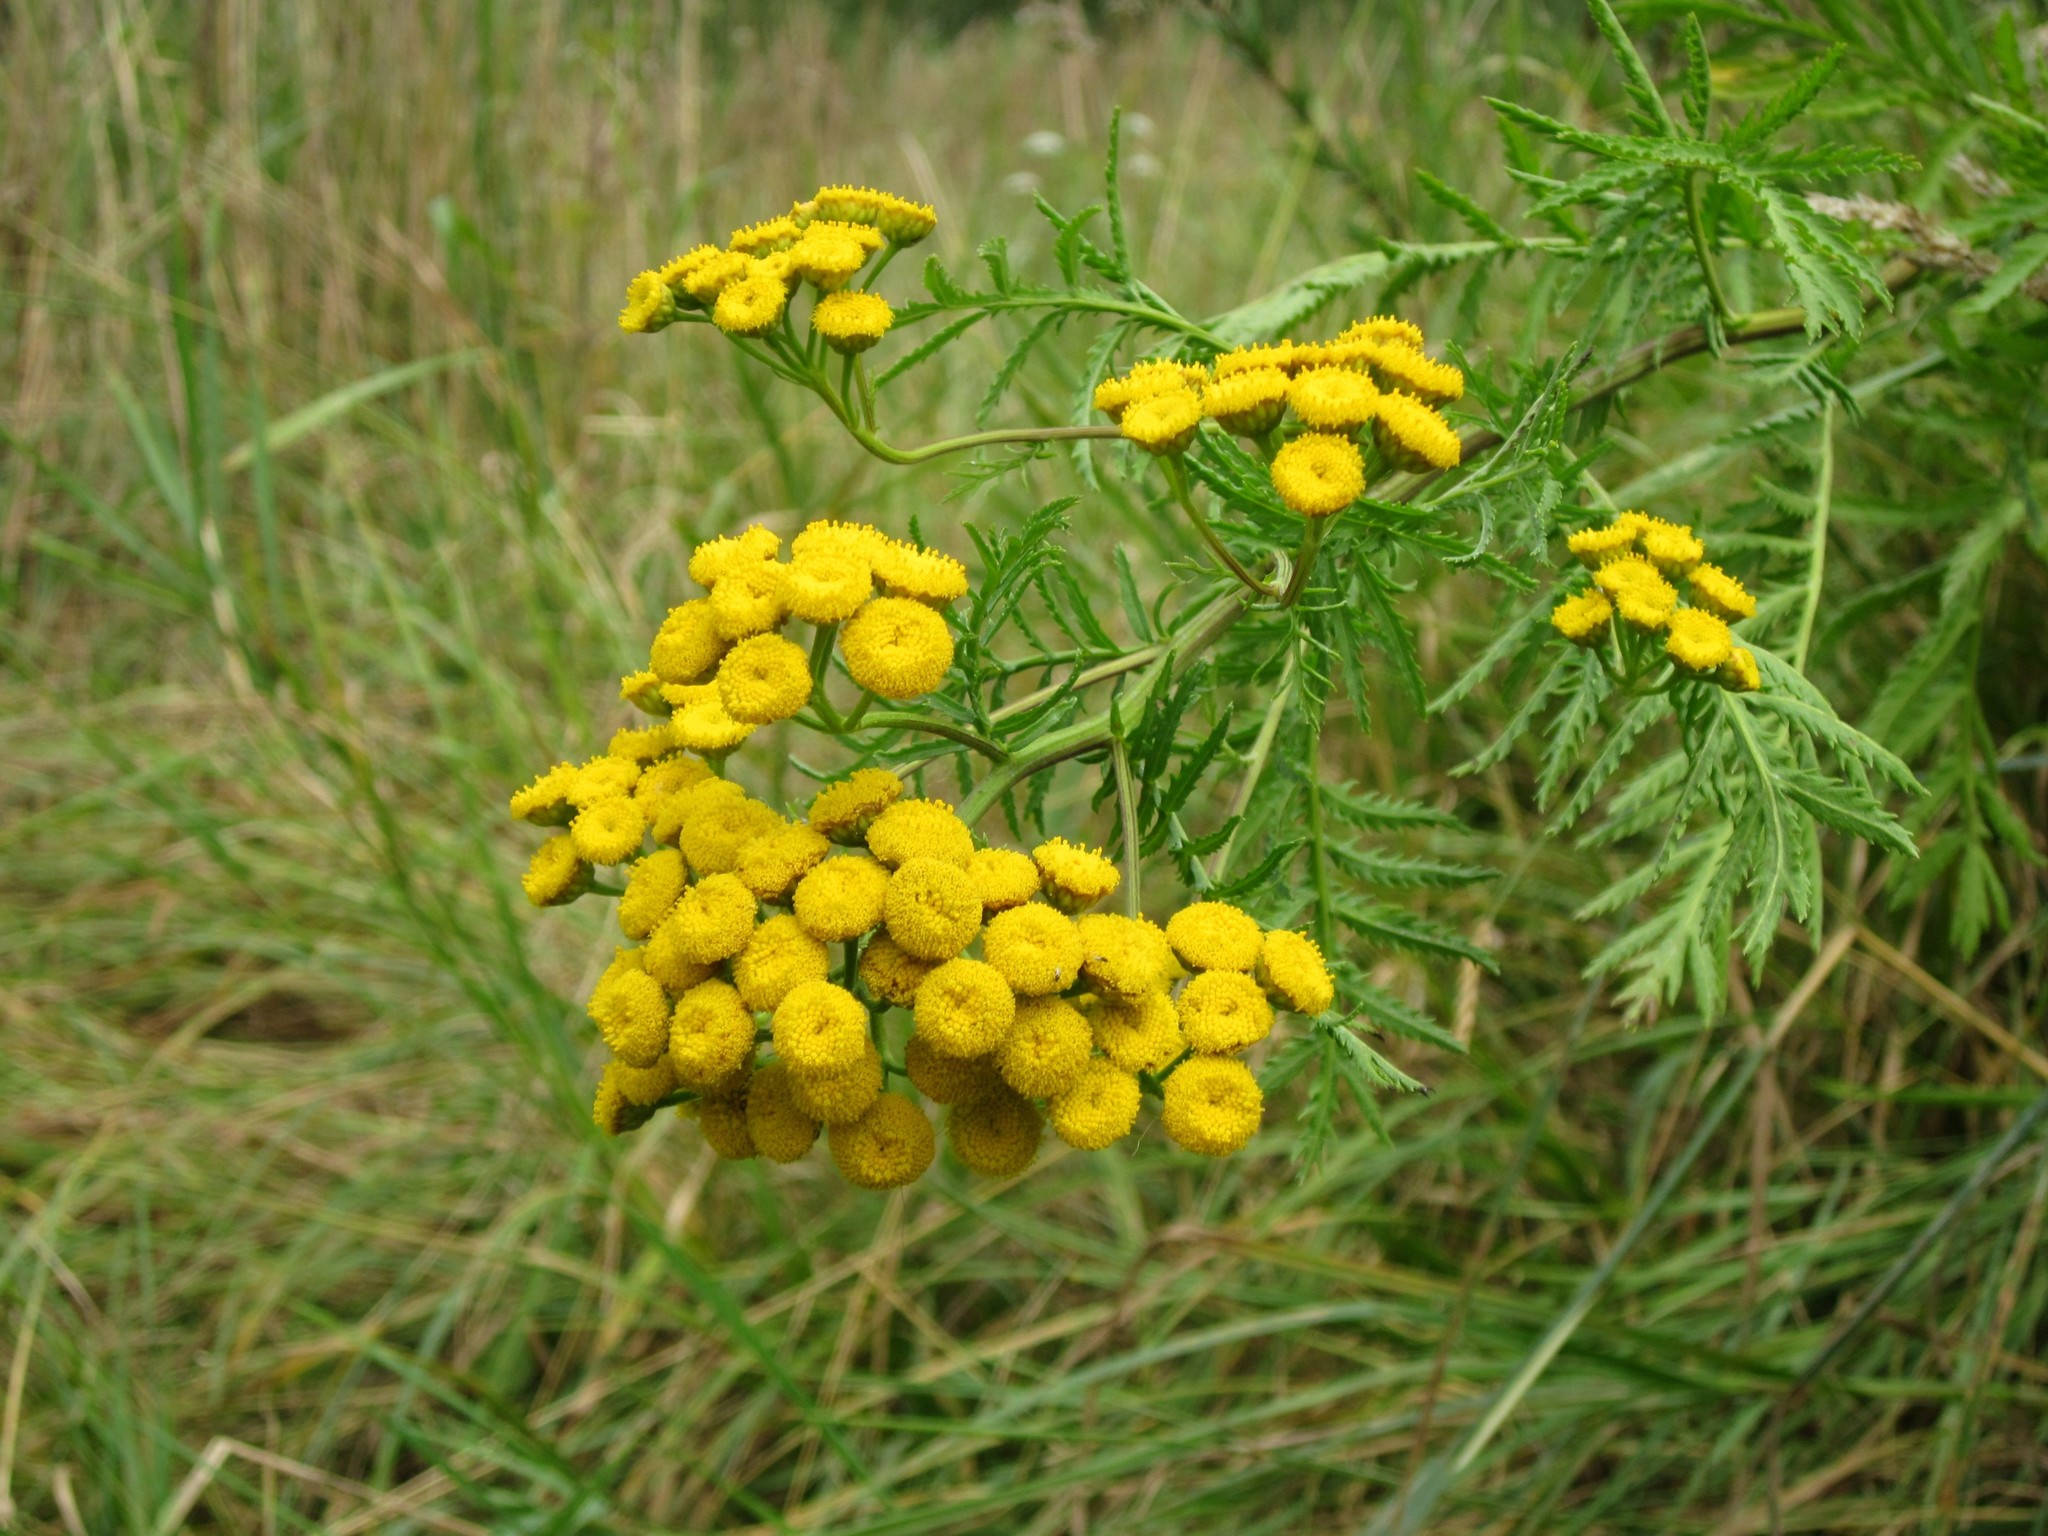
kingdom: Plantae
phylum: Tracheophyta
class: Magnoliopsida
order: Asterales
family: Asteraceae
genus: Tanacetum
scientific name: Tanacetum vulgare
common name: Common tansy
